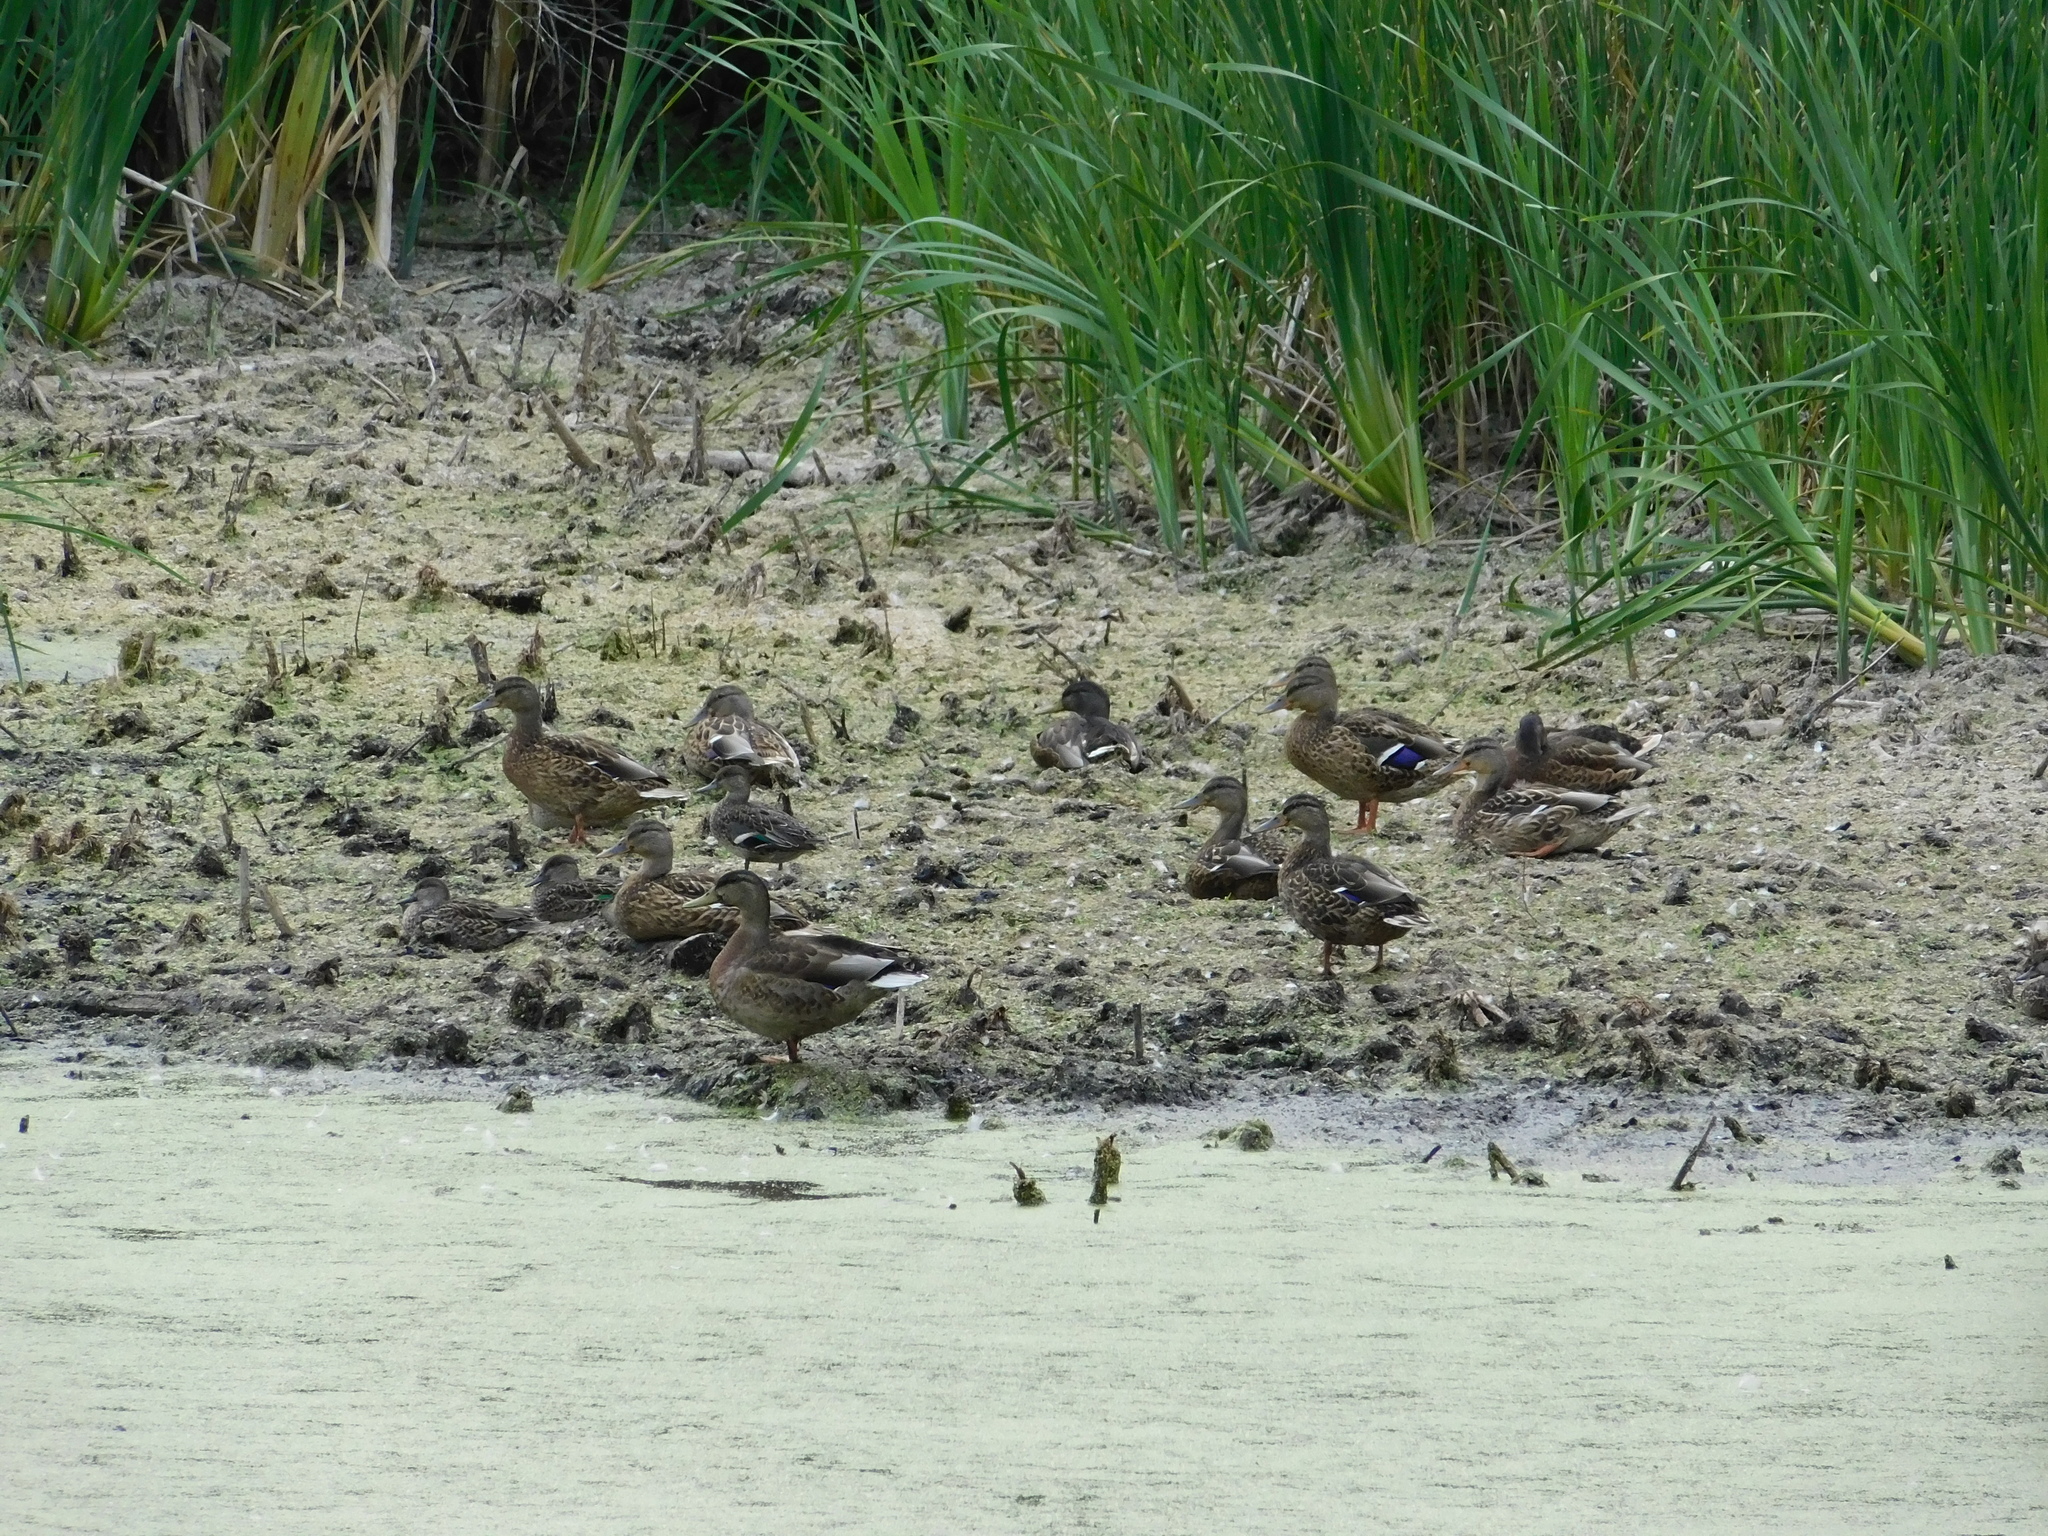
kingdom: Animalia
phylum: Chordata
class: Aves
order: Anseriformes
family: Anatidae
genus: Anas
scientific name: Anas platyrhynchos
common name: Mallard
